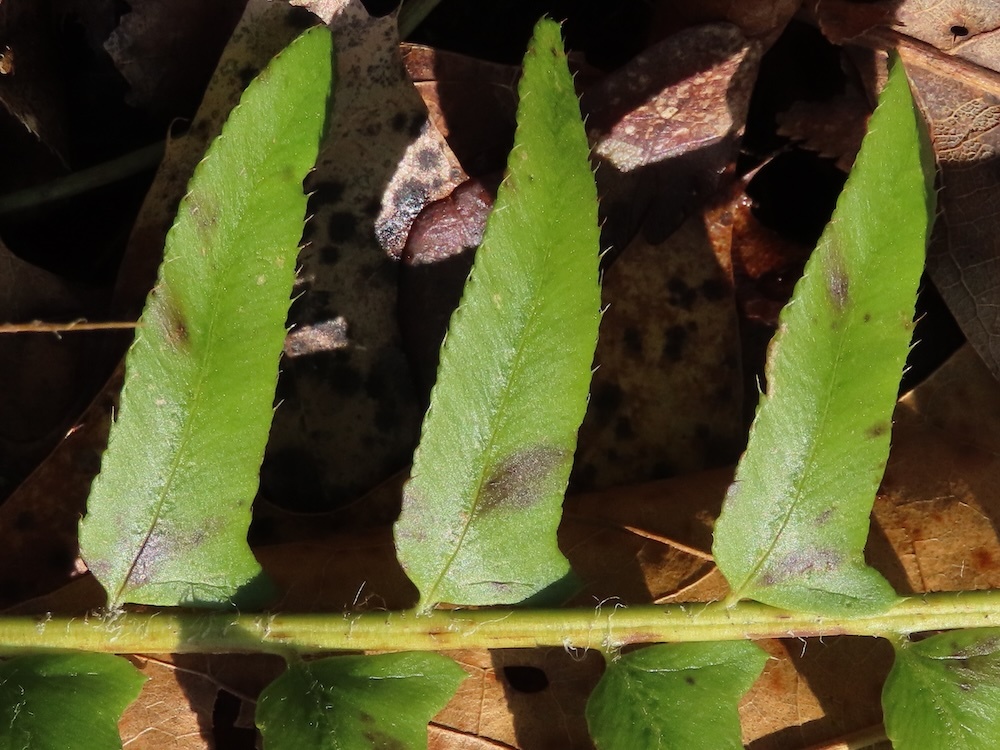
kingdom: Plantae
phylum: Tracheophyta
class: Polypodiopsida
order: Polypodiales
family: Dryopteridaceae
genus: Polystichum
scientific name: Polystichum acrostichoides
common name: Christmas fern
